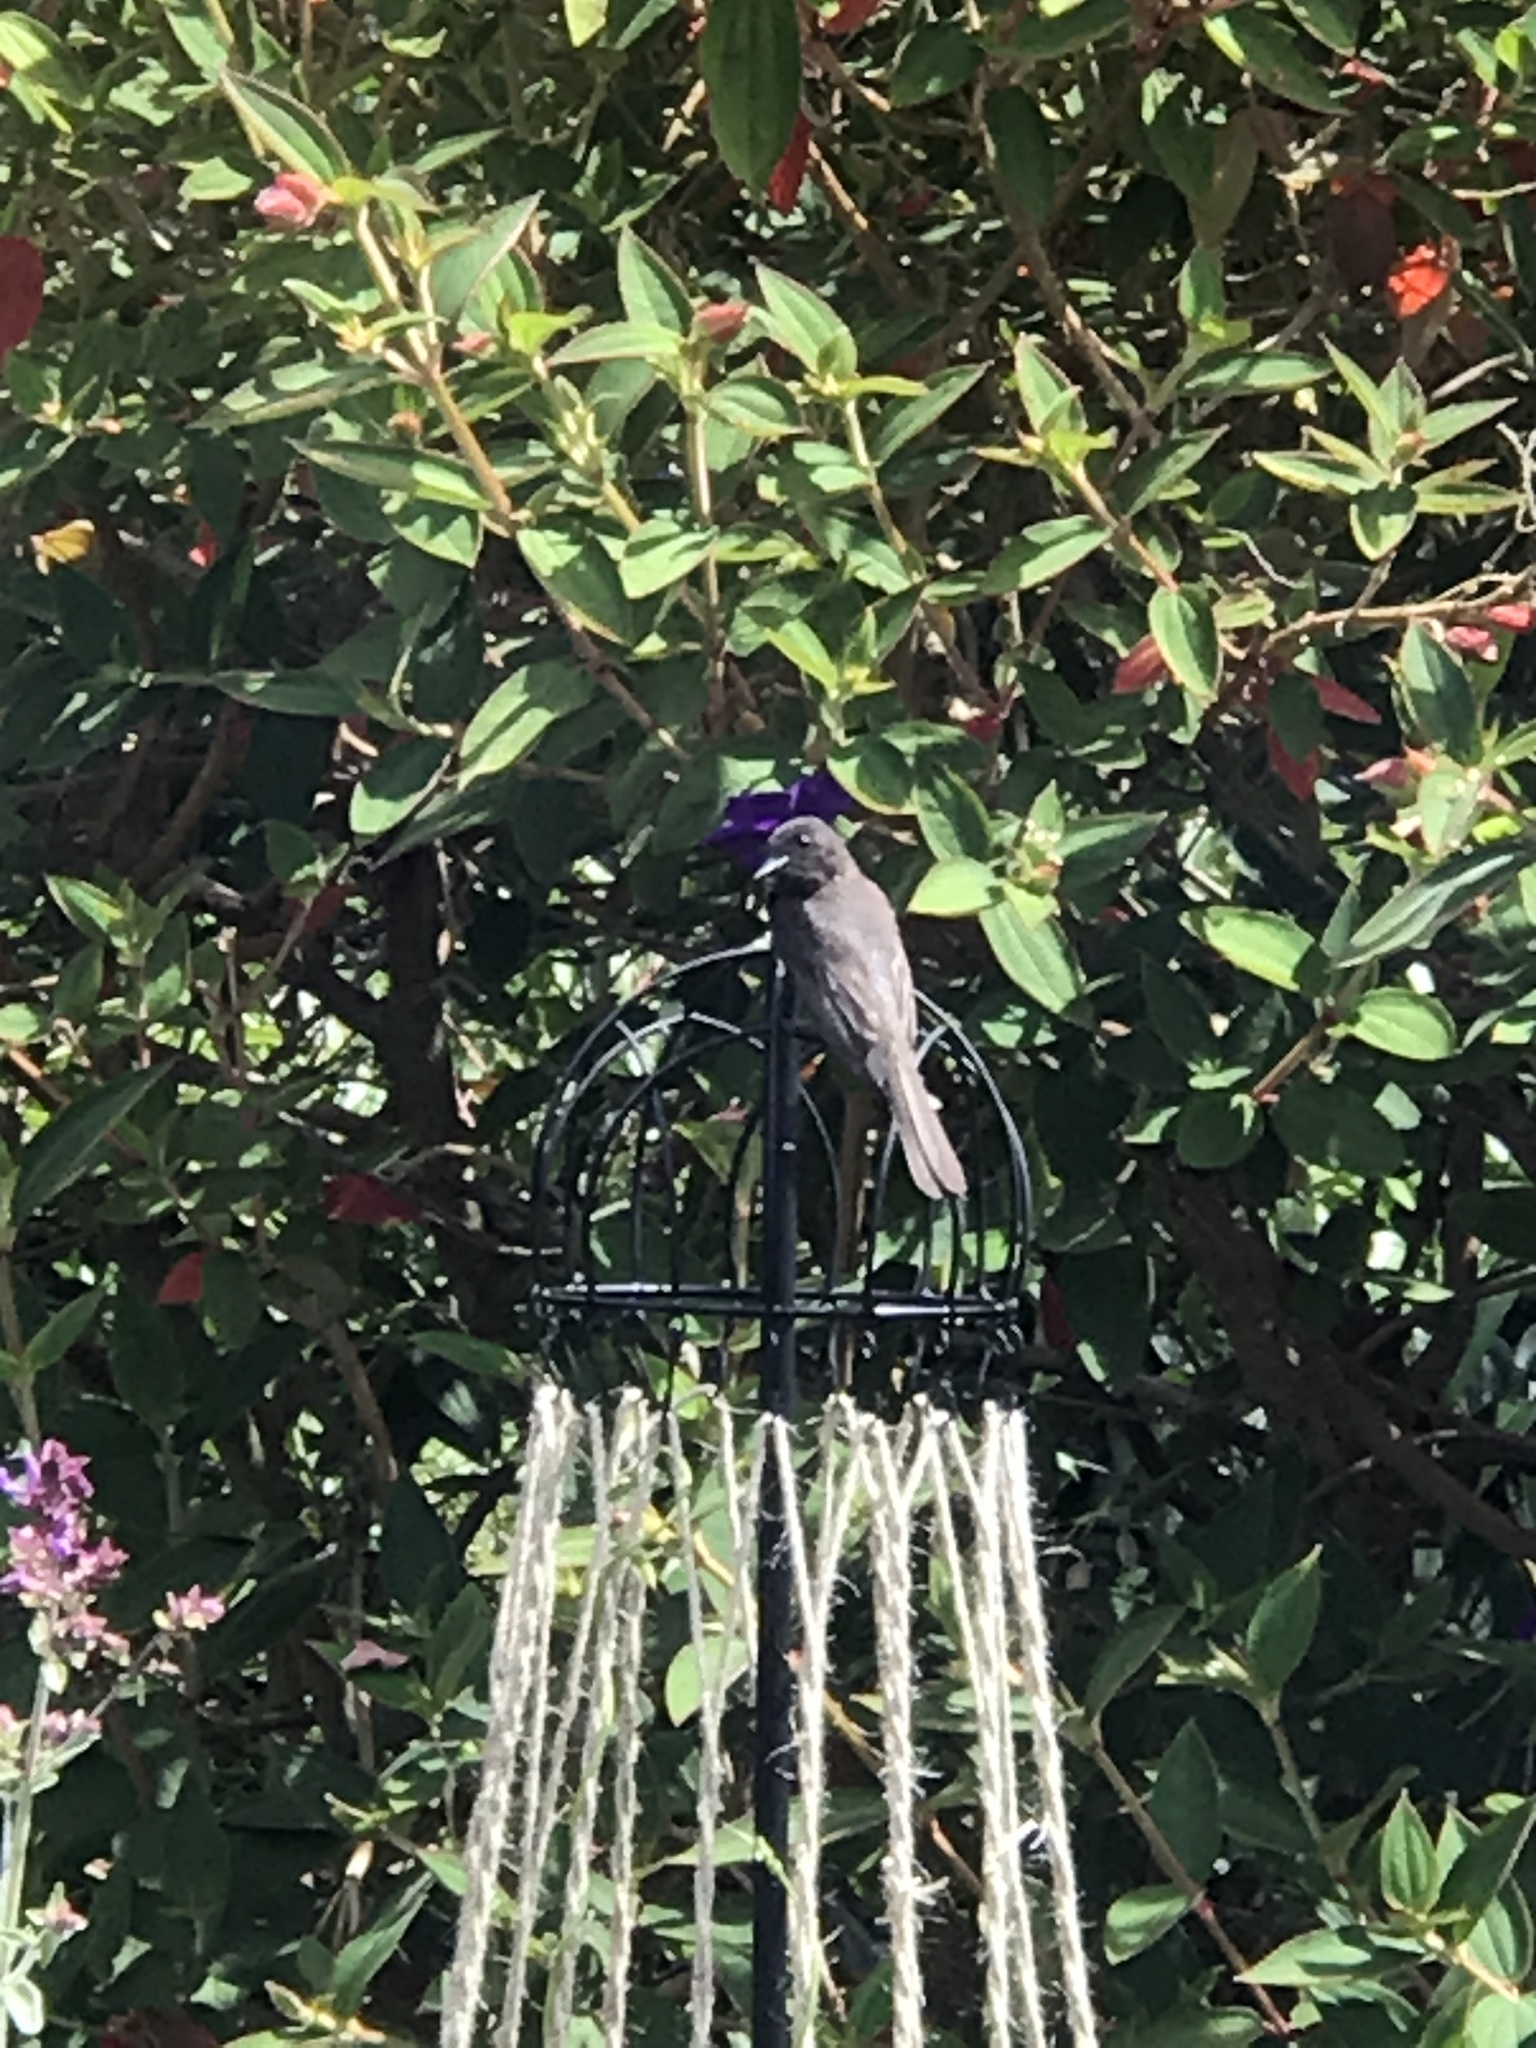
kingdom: Animalia
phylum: Chordata
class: Aves
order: Passeriformes
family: Tyrannidae
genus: Sayornis
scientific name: Sayornis nigricans
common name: Black phoebe
